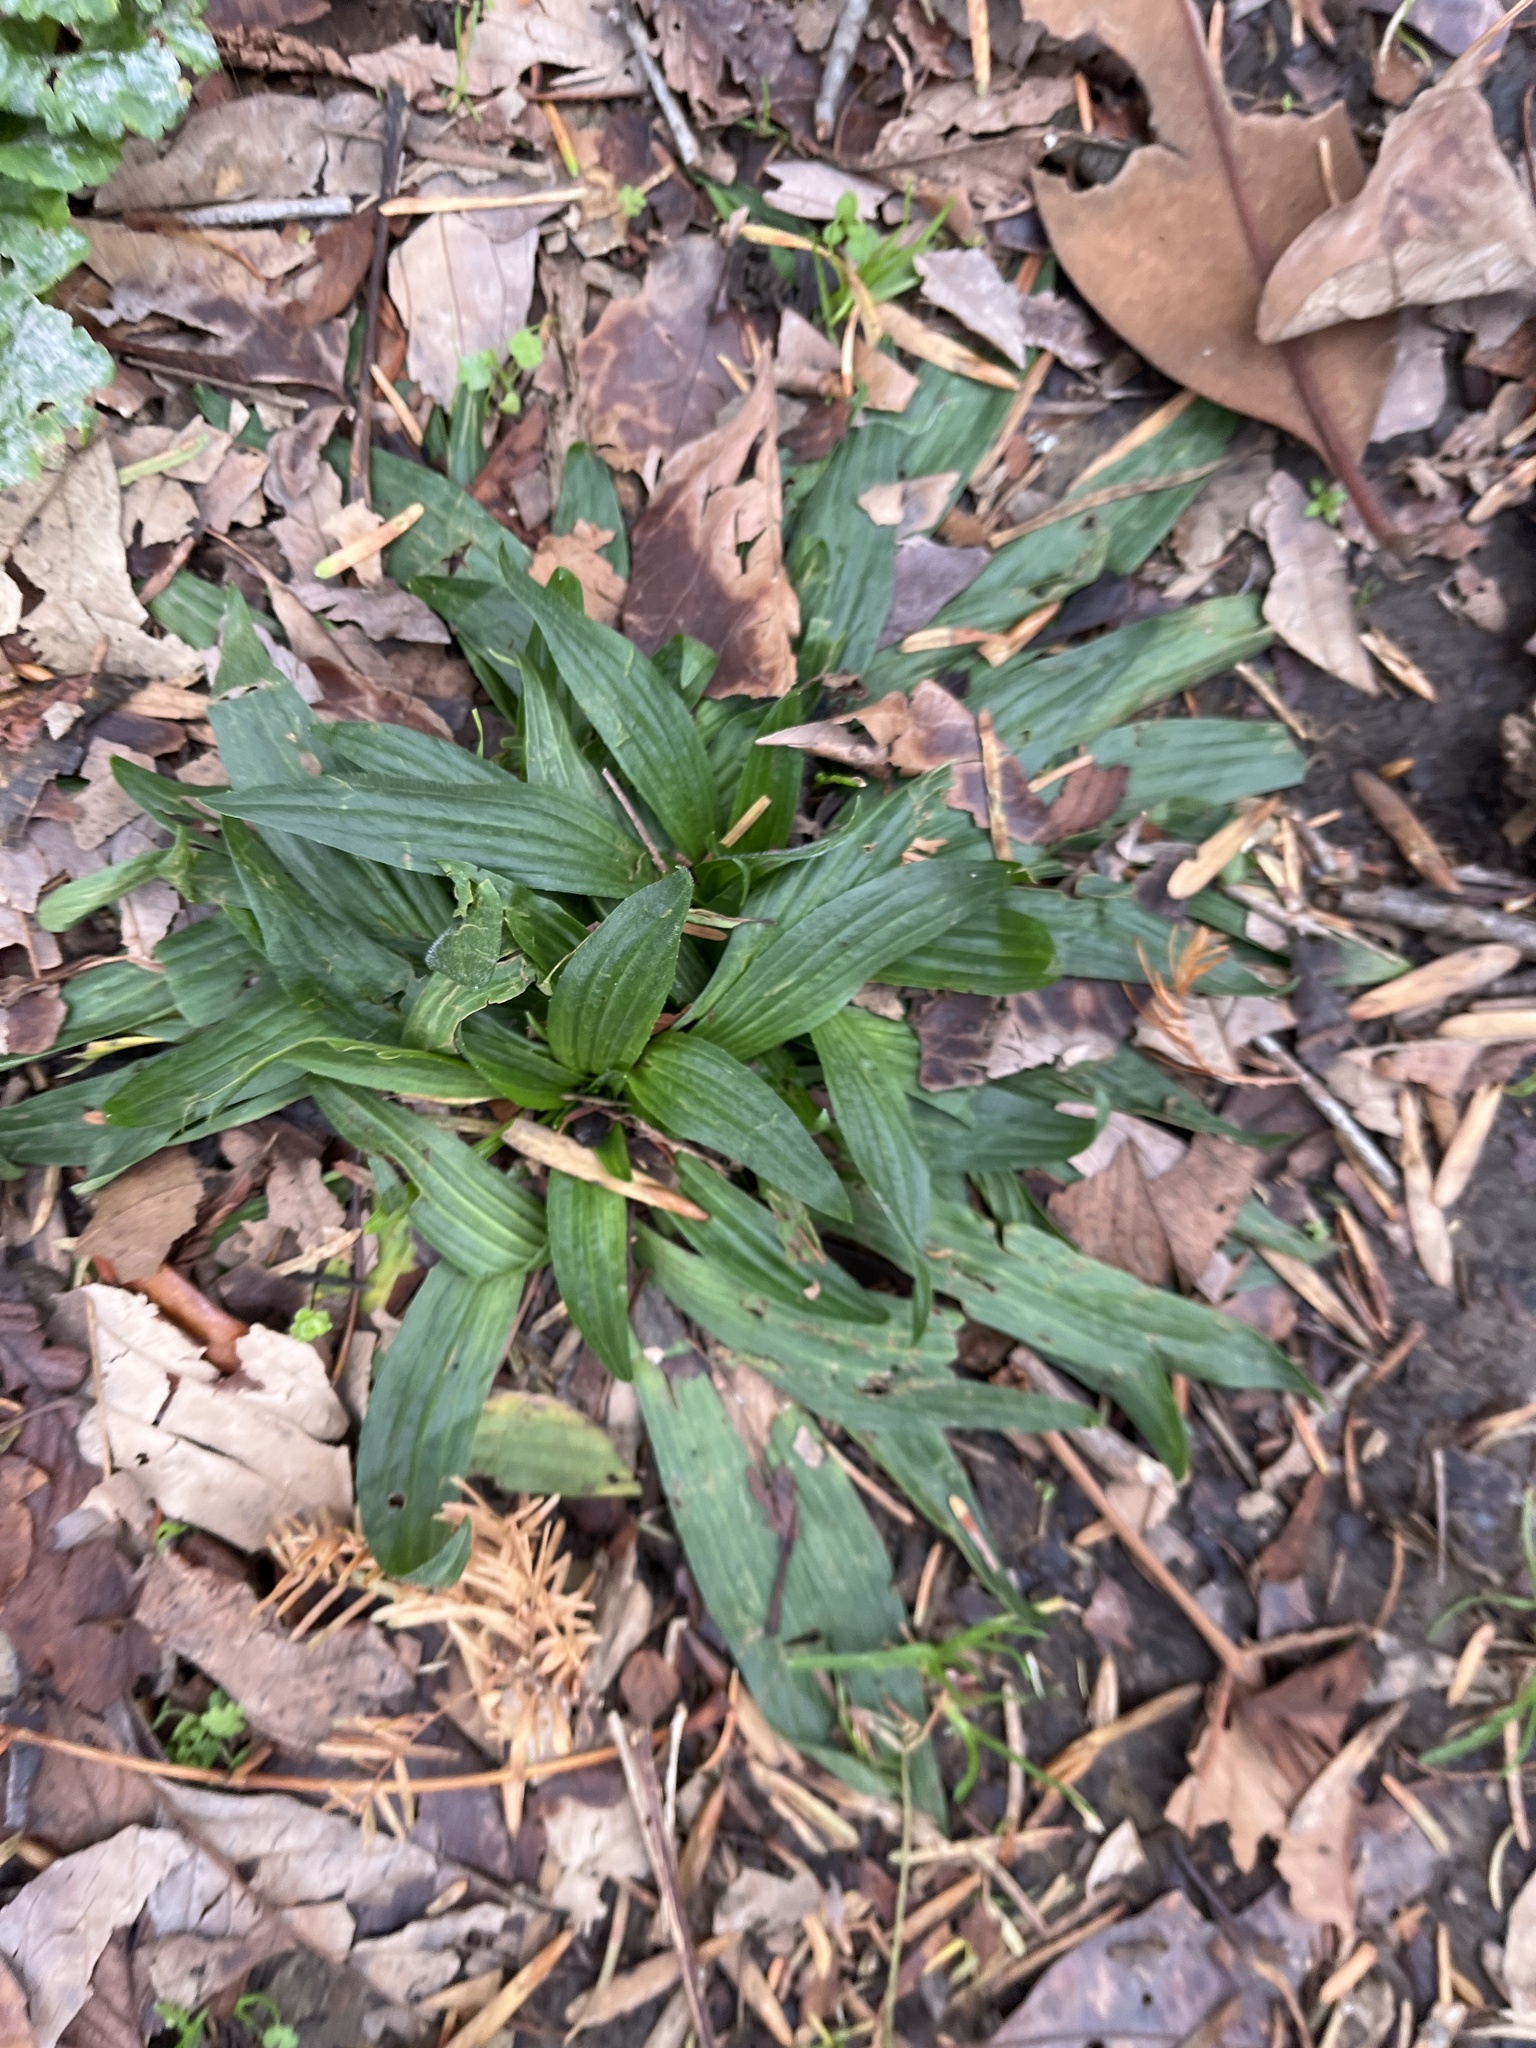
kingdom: Plantae
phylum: Tracheophyta
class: Magnoliopsida
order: Lamiales
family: Plantaginaceae
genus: Plantago
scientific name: Plantago lanceolata
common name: Ribwort plantain
